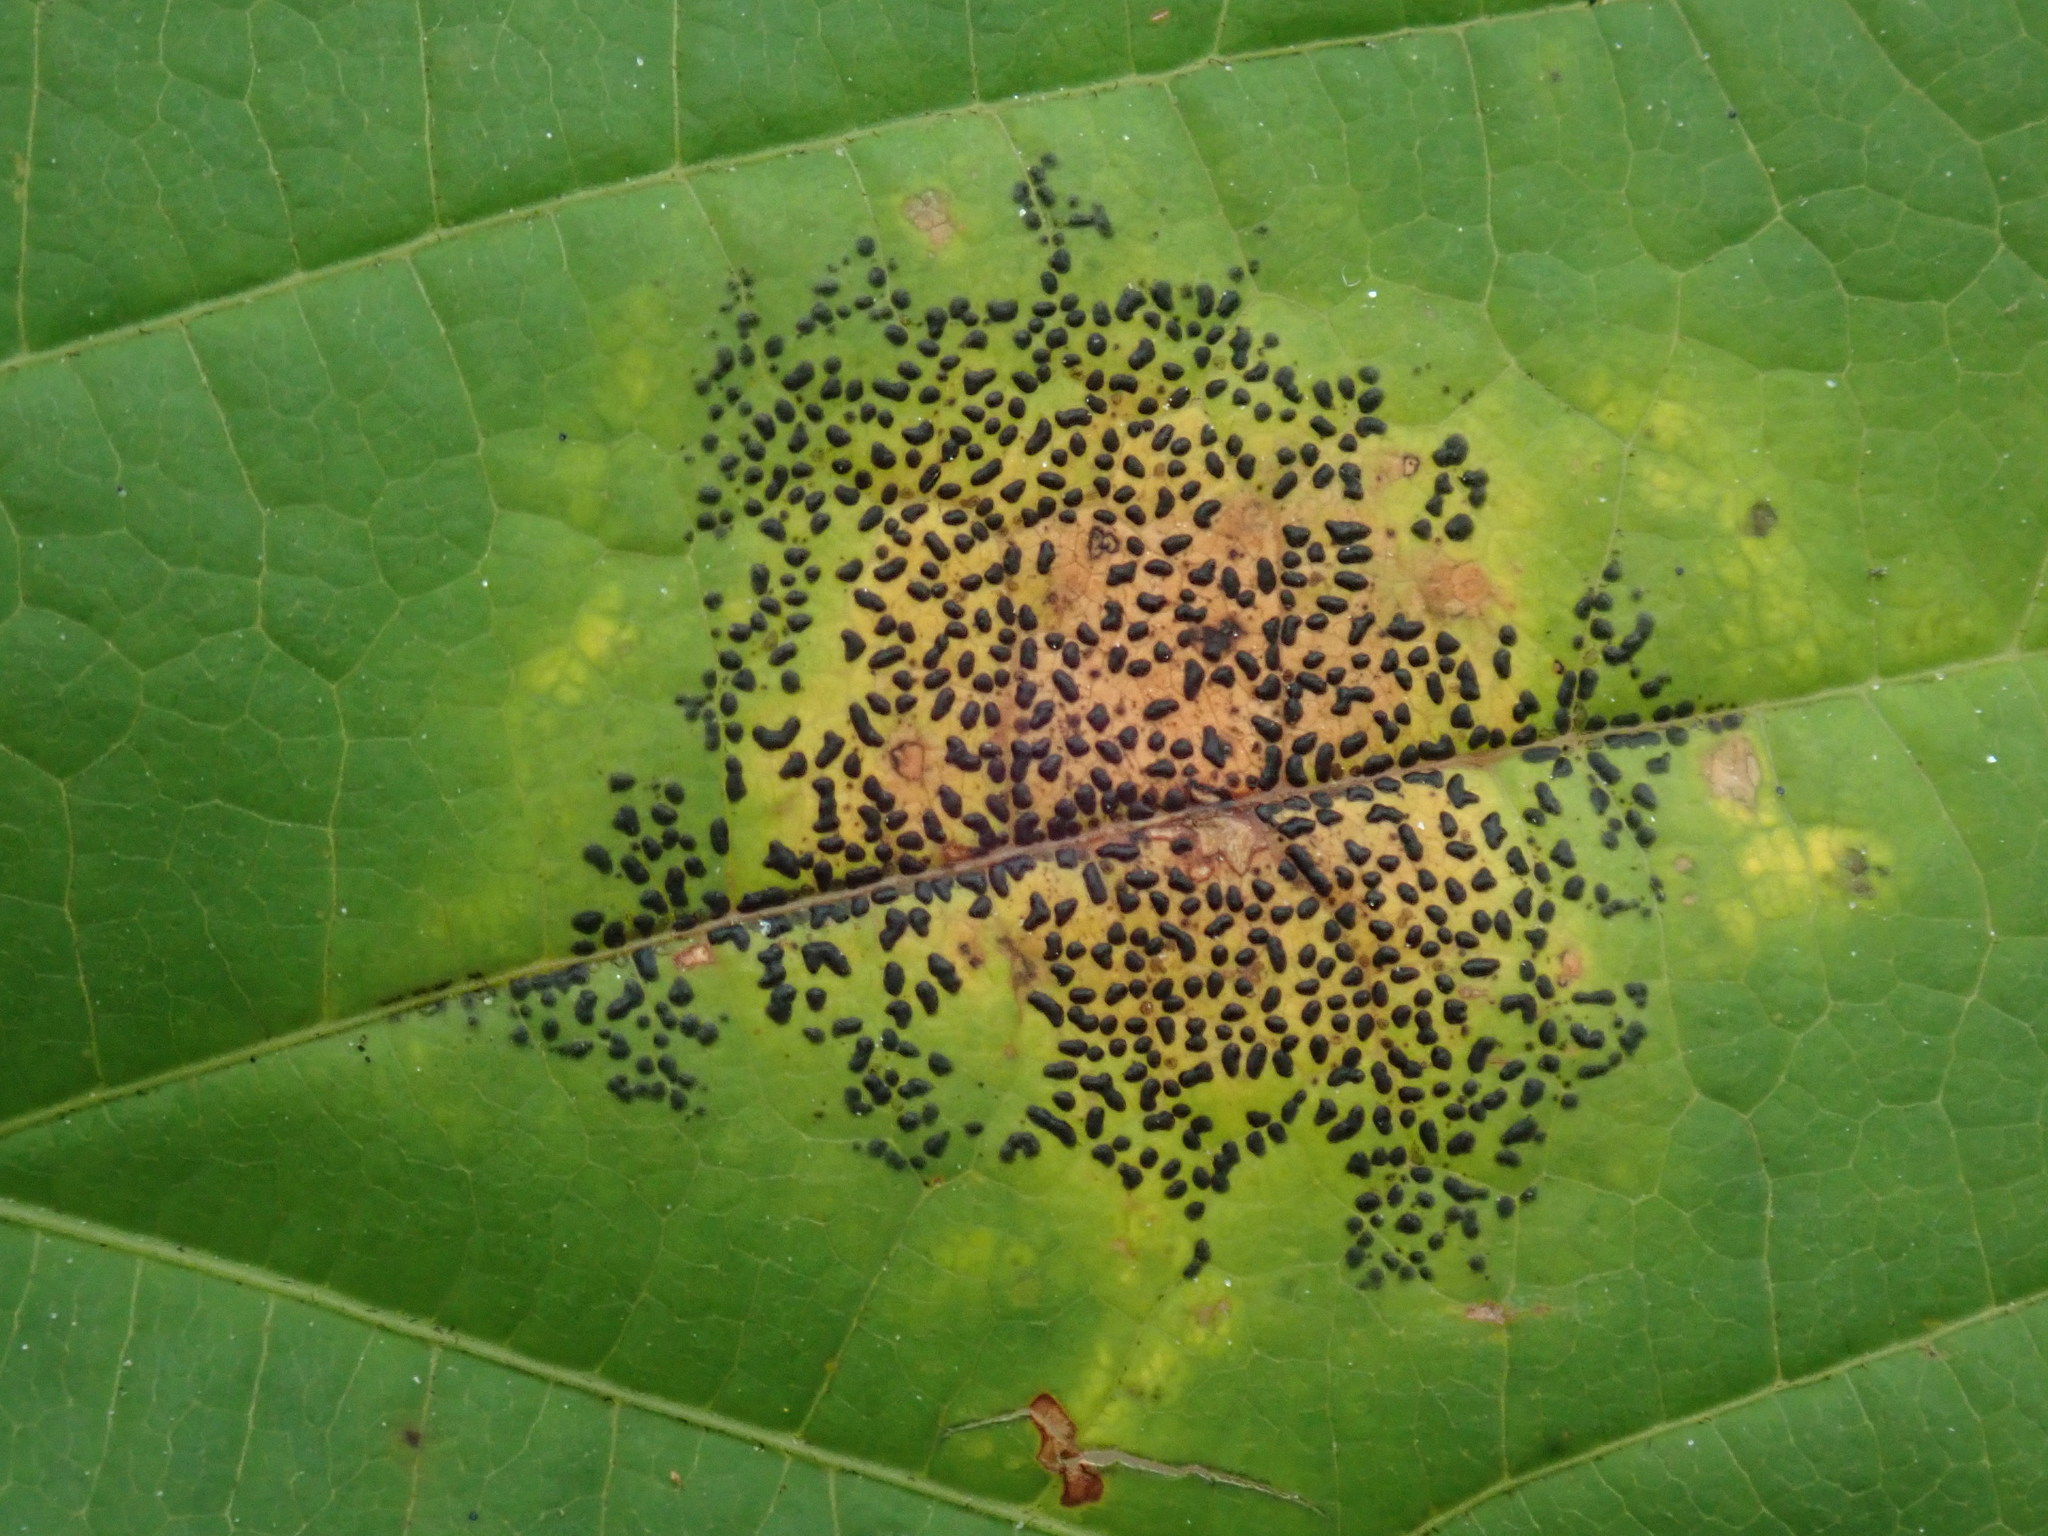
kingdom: Fungi
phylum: Ascomycota
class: Leotiomycetes
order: Rhytismatales
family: Rhytismataceae
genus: Rhytisma
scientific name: Rhytisma punctatum
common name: Speckled tar spot
